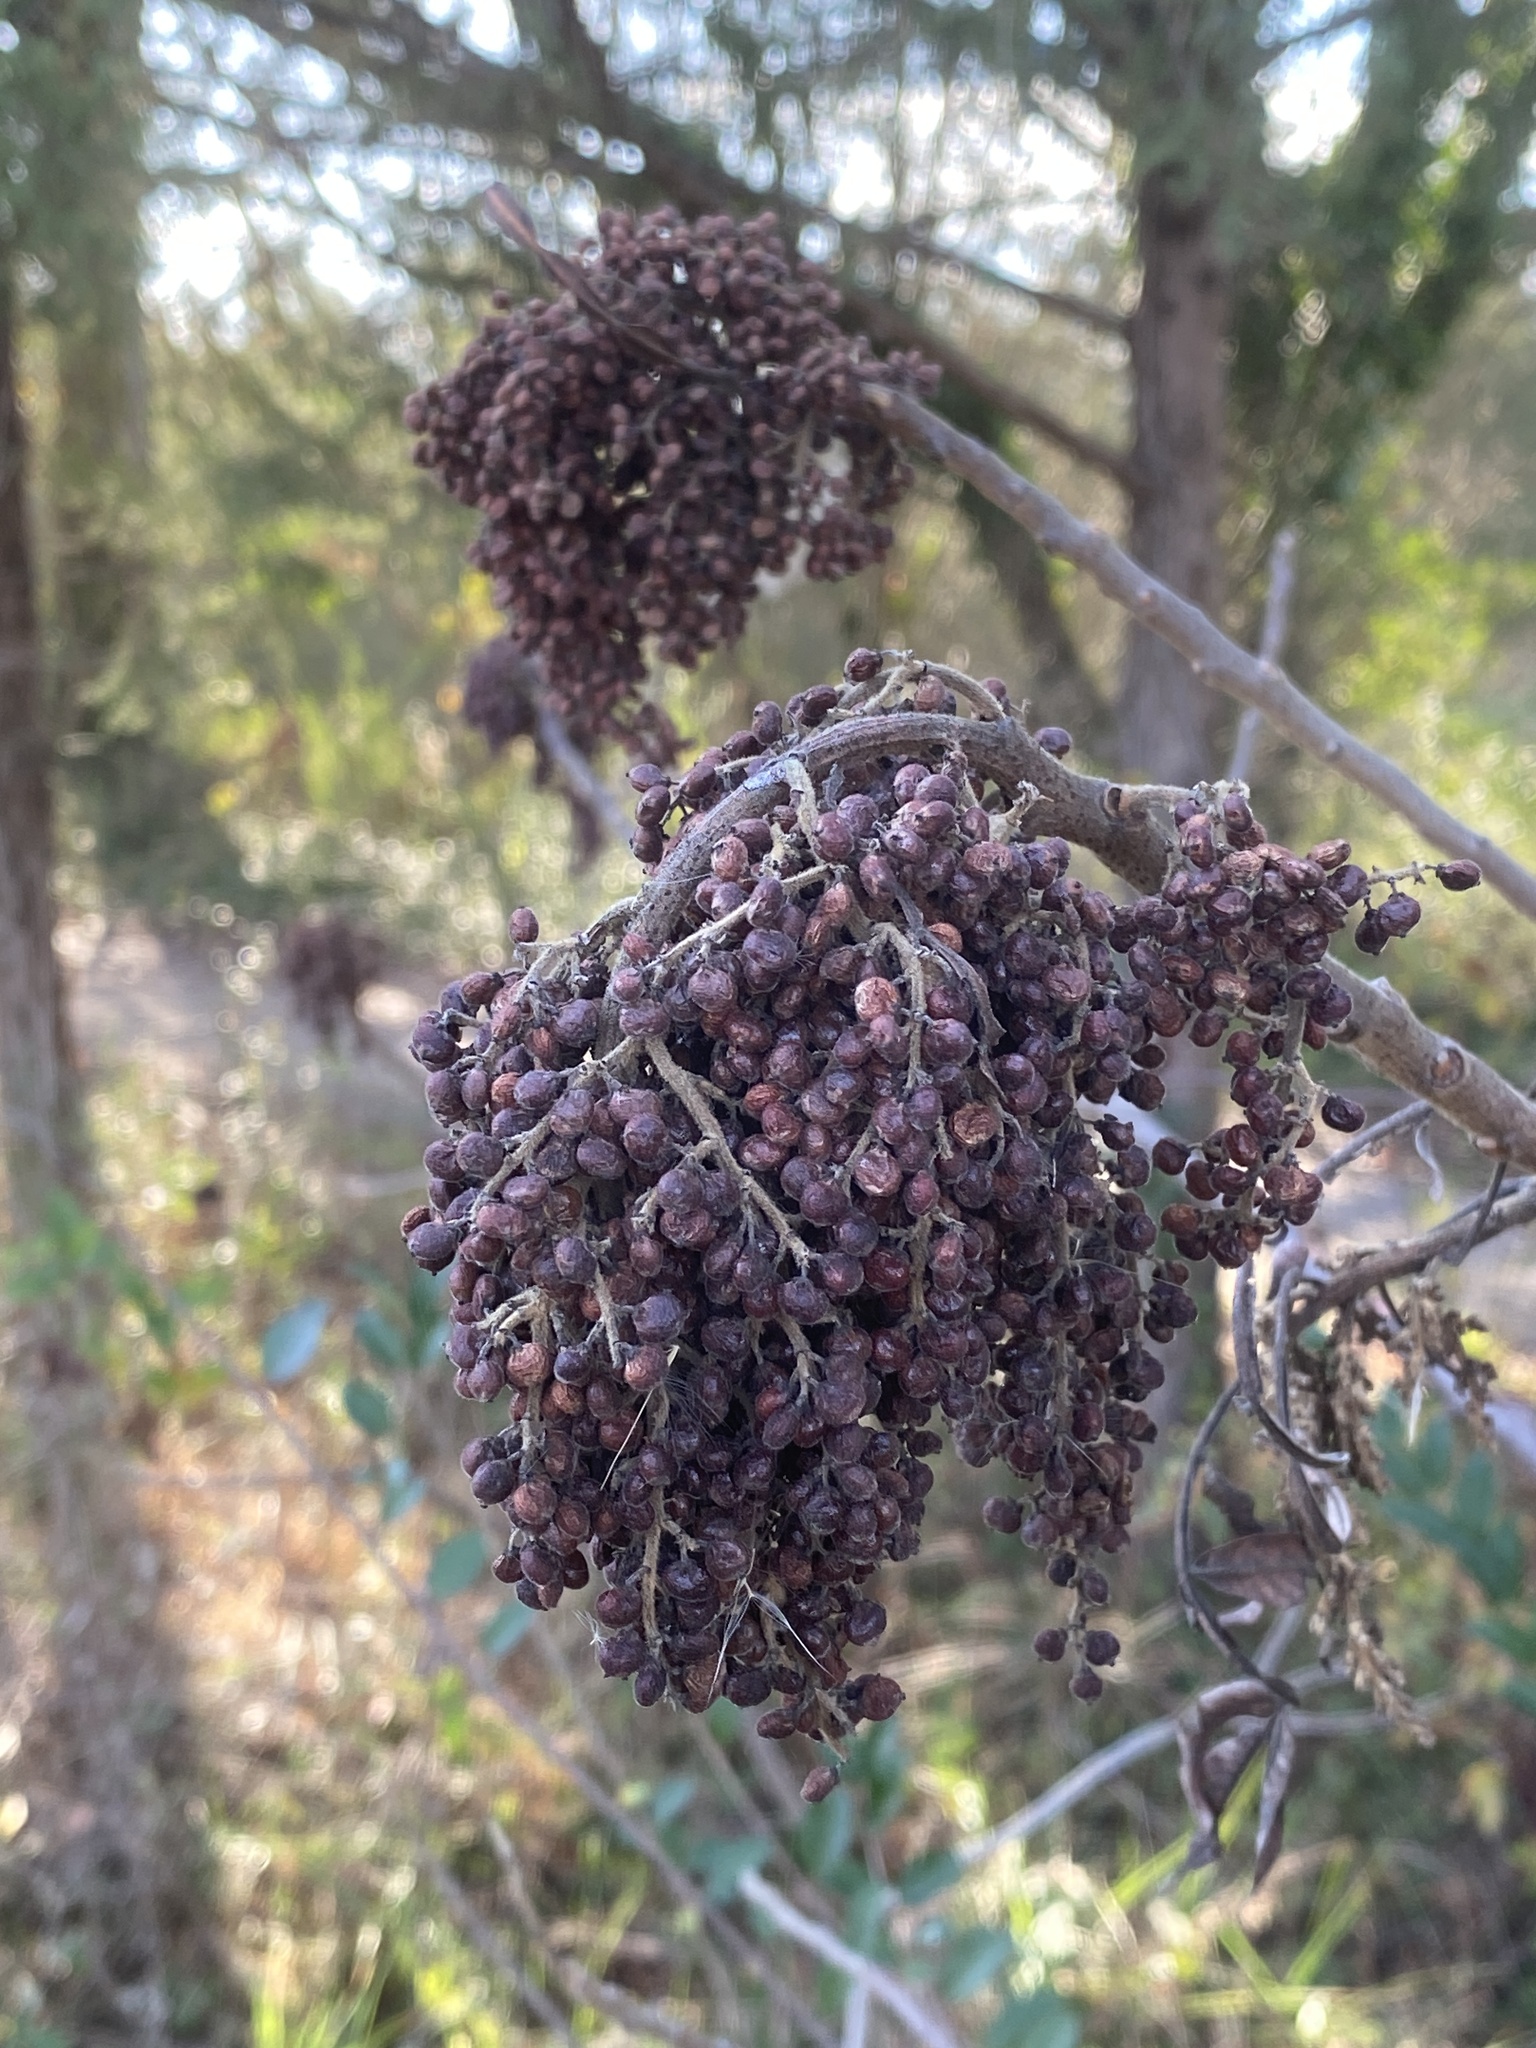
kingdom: Plantae
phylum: Tracheophyta
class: Magnoliopsida
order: Sapindales
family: Anacardiaceae
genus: Rhus
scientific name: Rhus copallina
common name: Shining sumac
